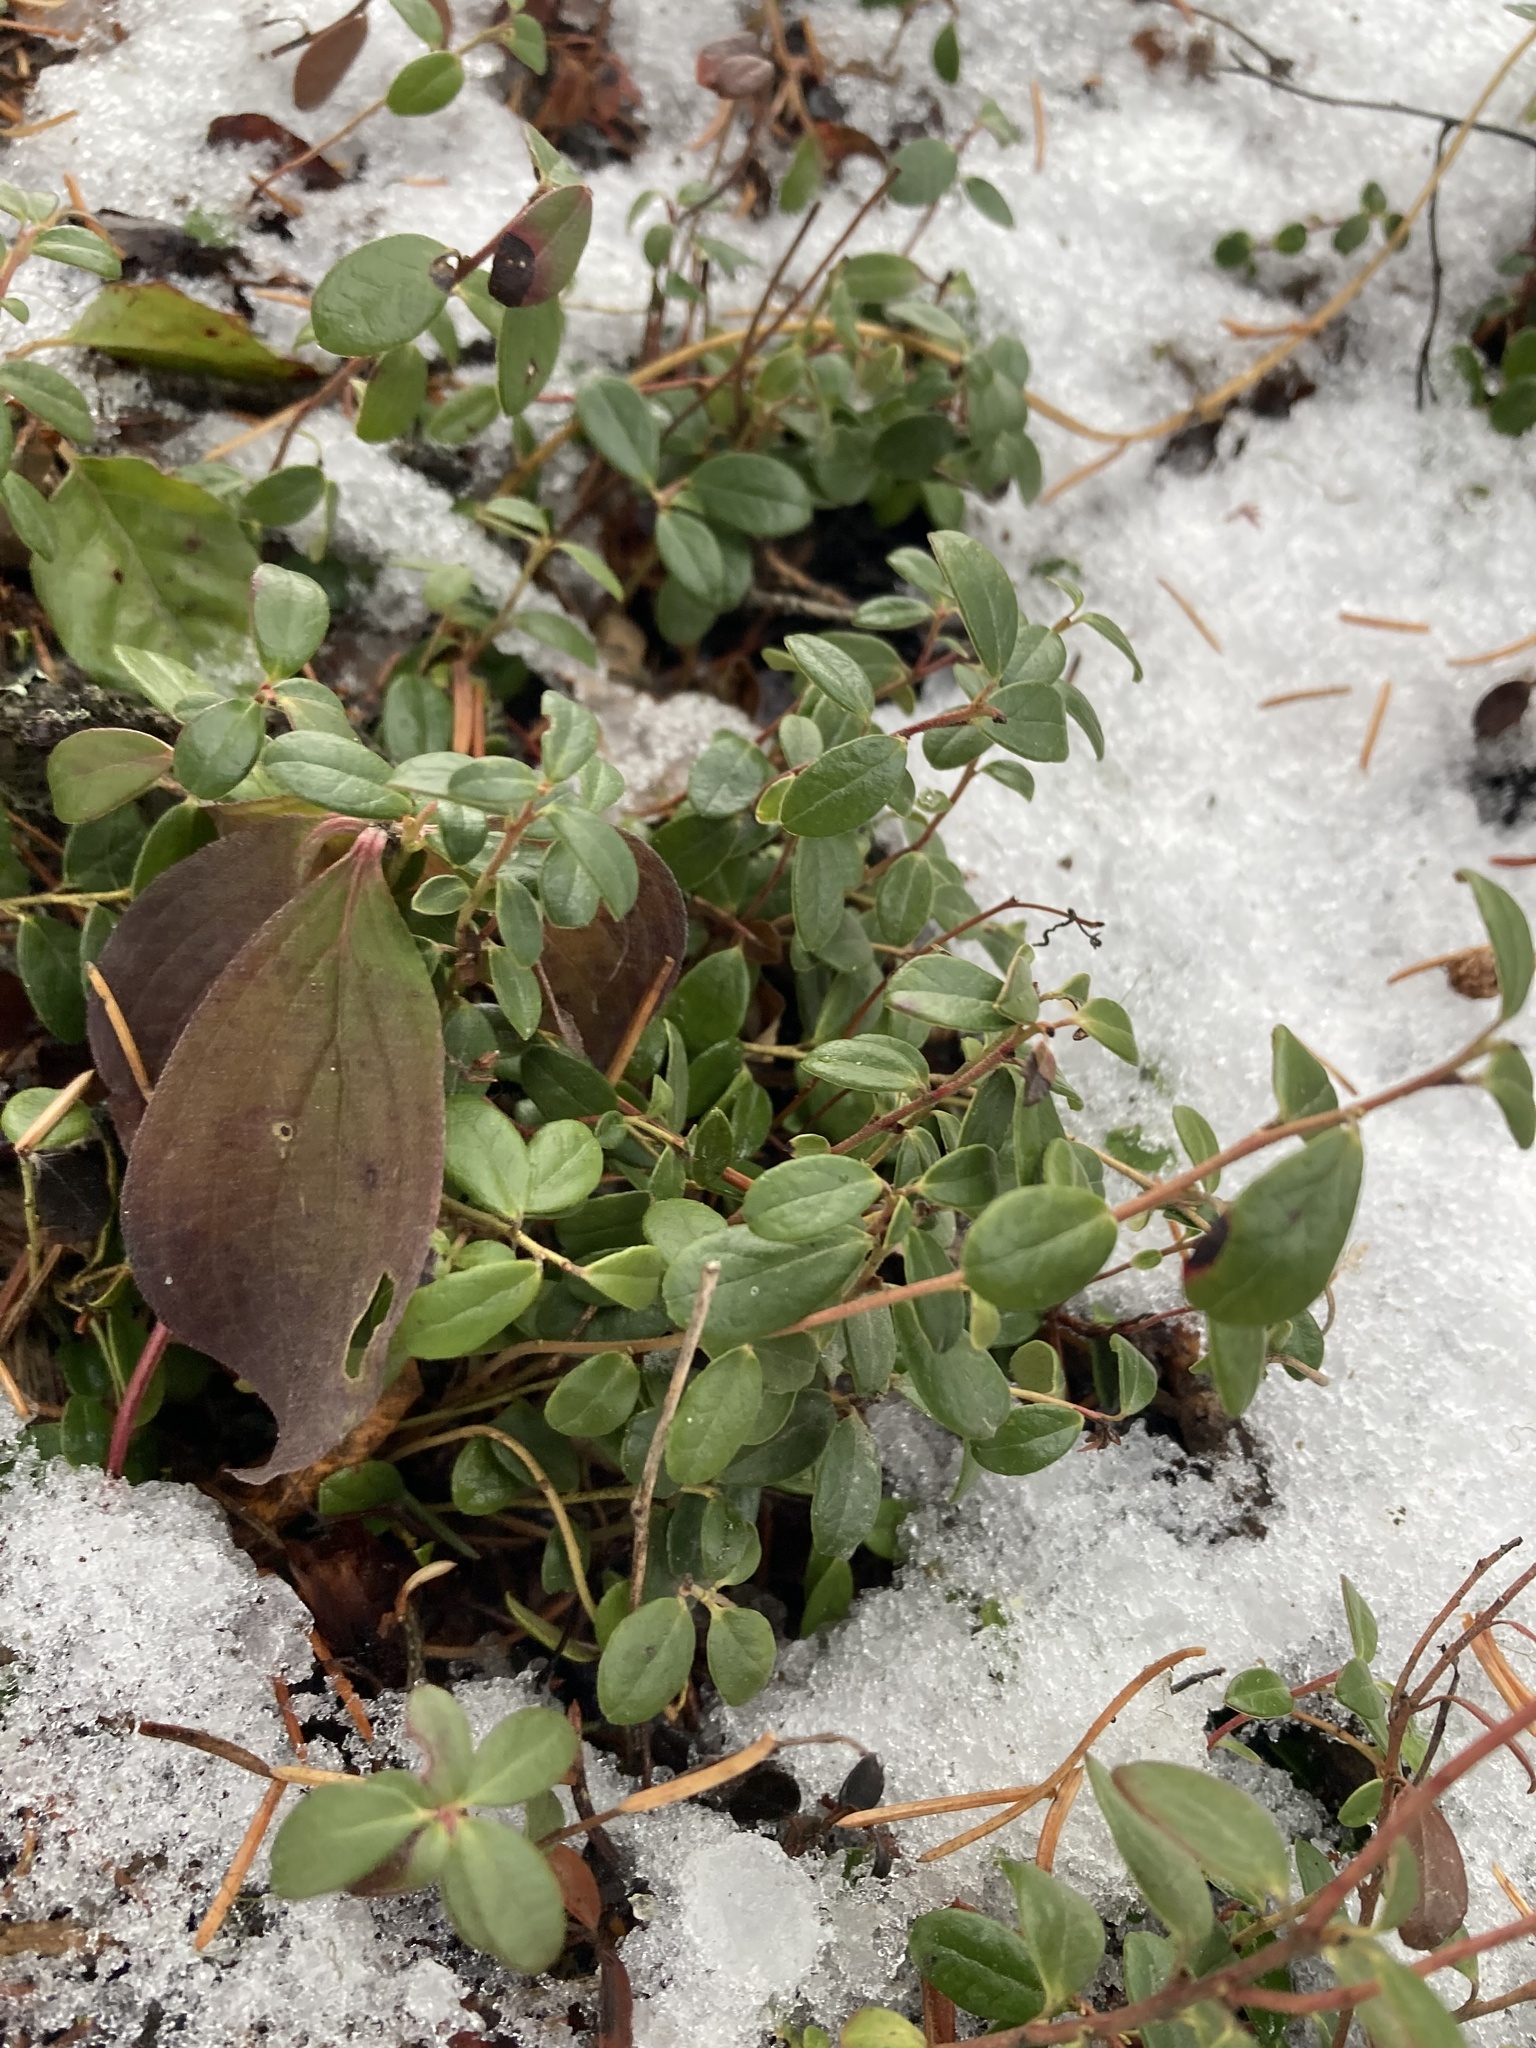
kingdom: Plantae
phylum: Tracheophyta
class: Magnoliopsida
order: Ericales
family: Ericaceae
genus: Vaccinium
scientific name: Vaccinium vitis-idaea
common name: Cowberry
